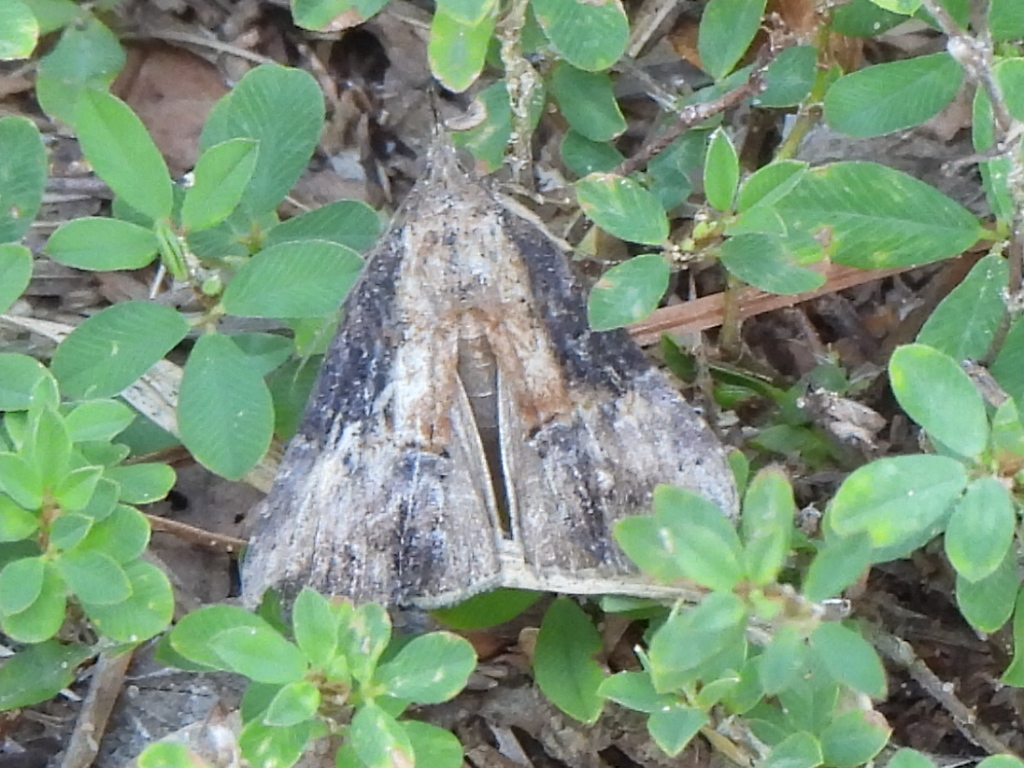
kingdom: Animalia
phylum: Arthropoda
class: Insecta
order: Lepidoptera
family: Erebidae
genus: Hypena
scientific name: Hypena scabra
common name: Green cloverworm
